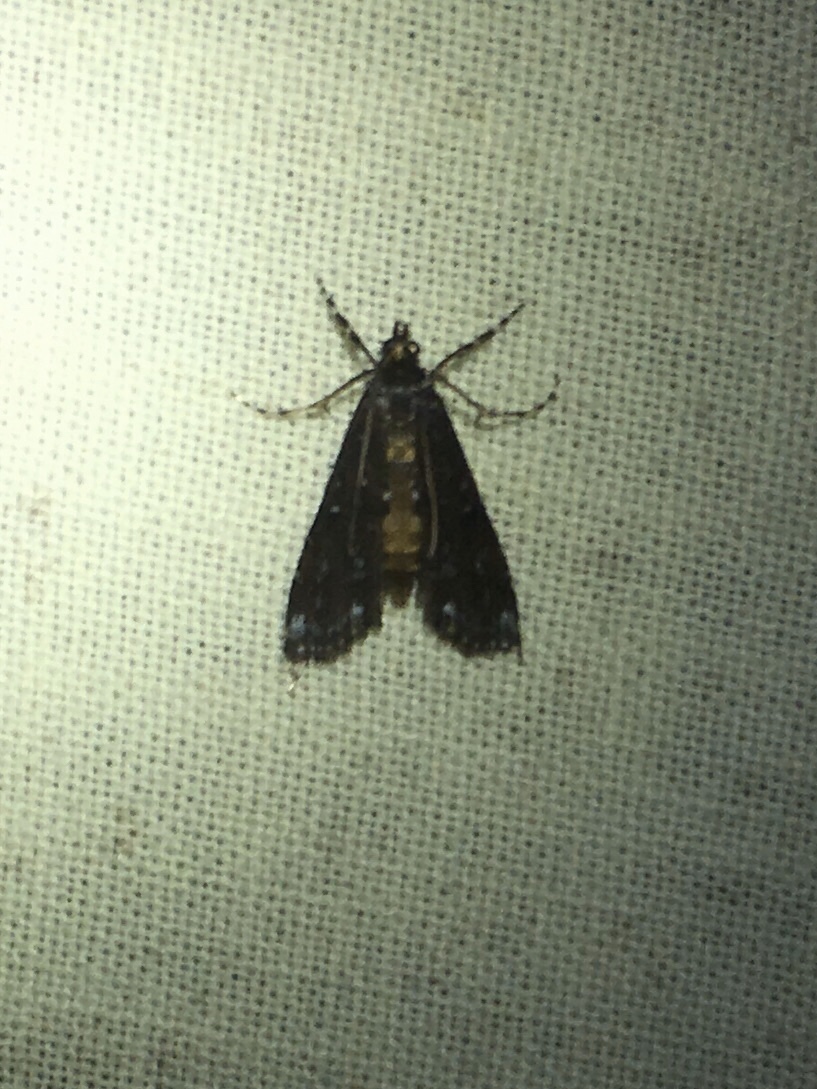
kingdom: Animalia
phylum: Arthropoda
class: Insecta
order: Lepidoptera
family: Crambidae
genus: Langessa
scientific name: Langessa nomophilalis
